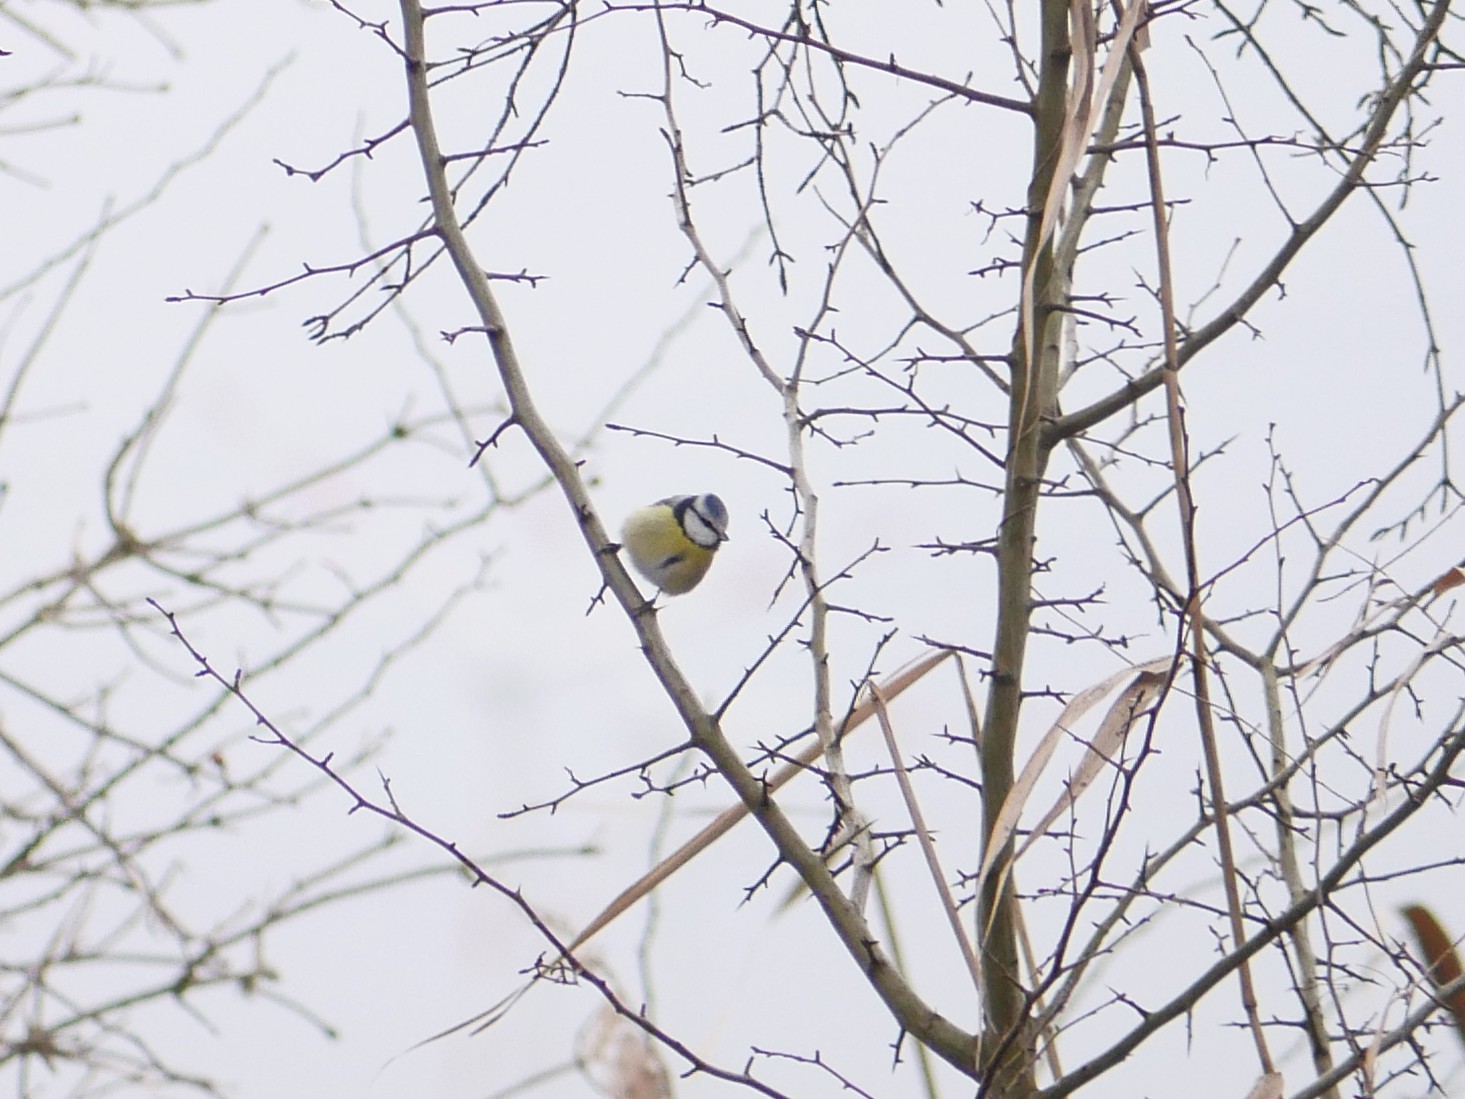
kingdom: Animalia
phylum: Chordata
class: Aves
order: Passeriformes
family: Paridae
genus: Cyanistes
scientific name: Cyanistes caeruleus
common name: Eurasian blue tit
